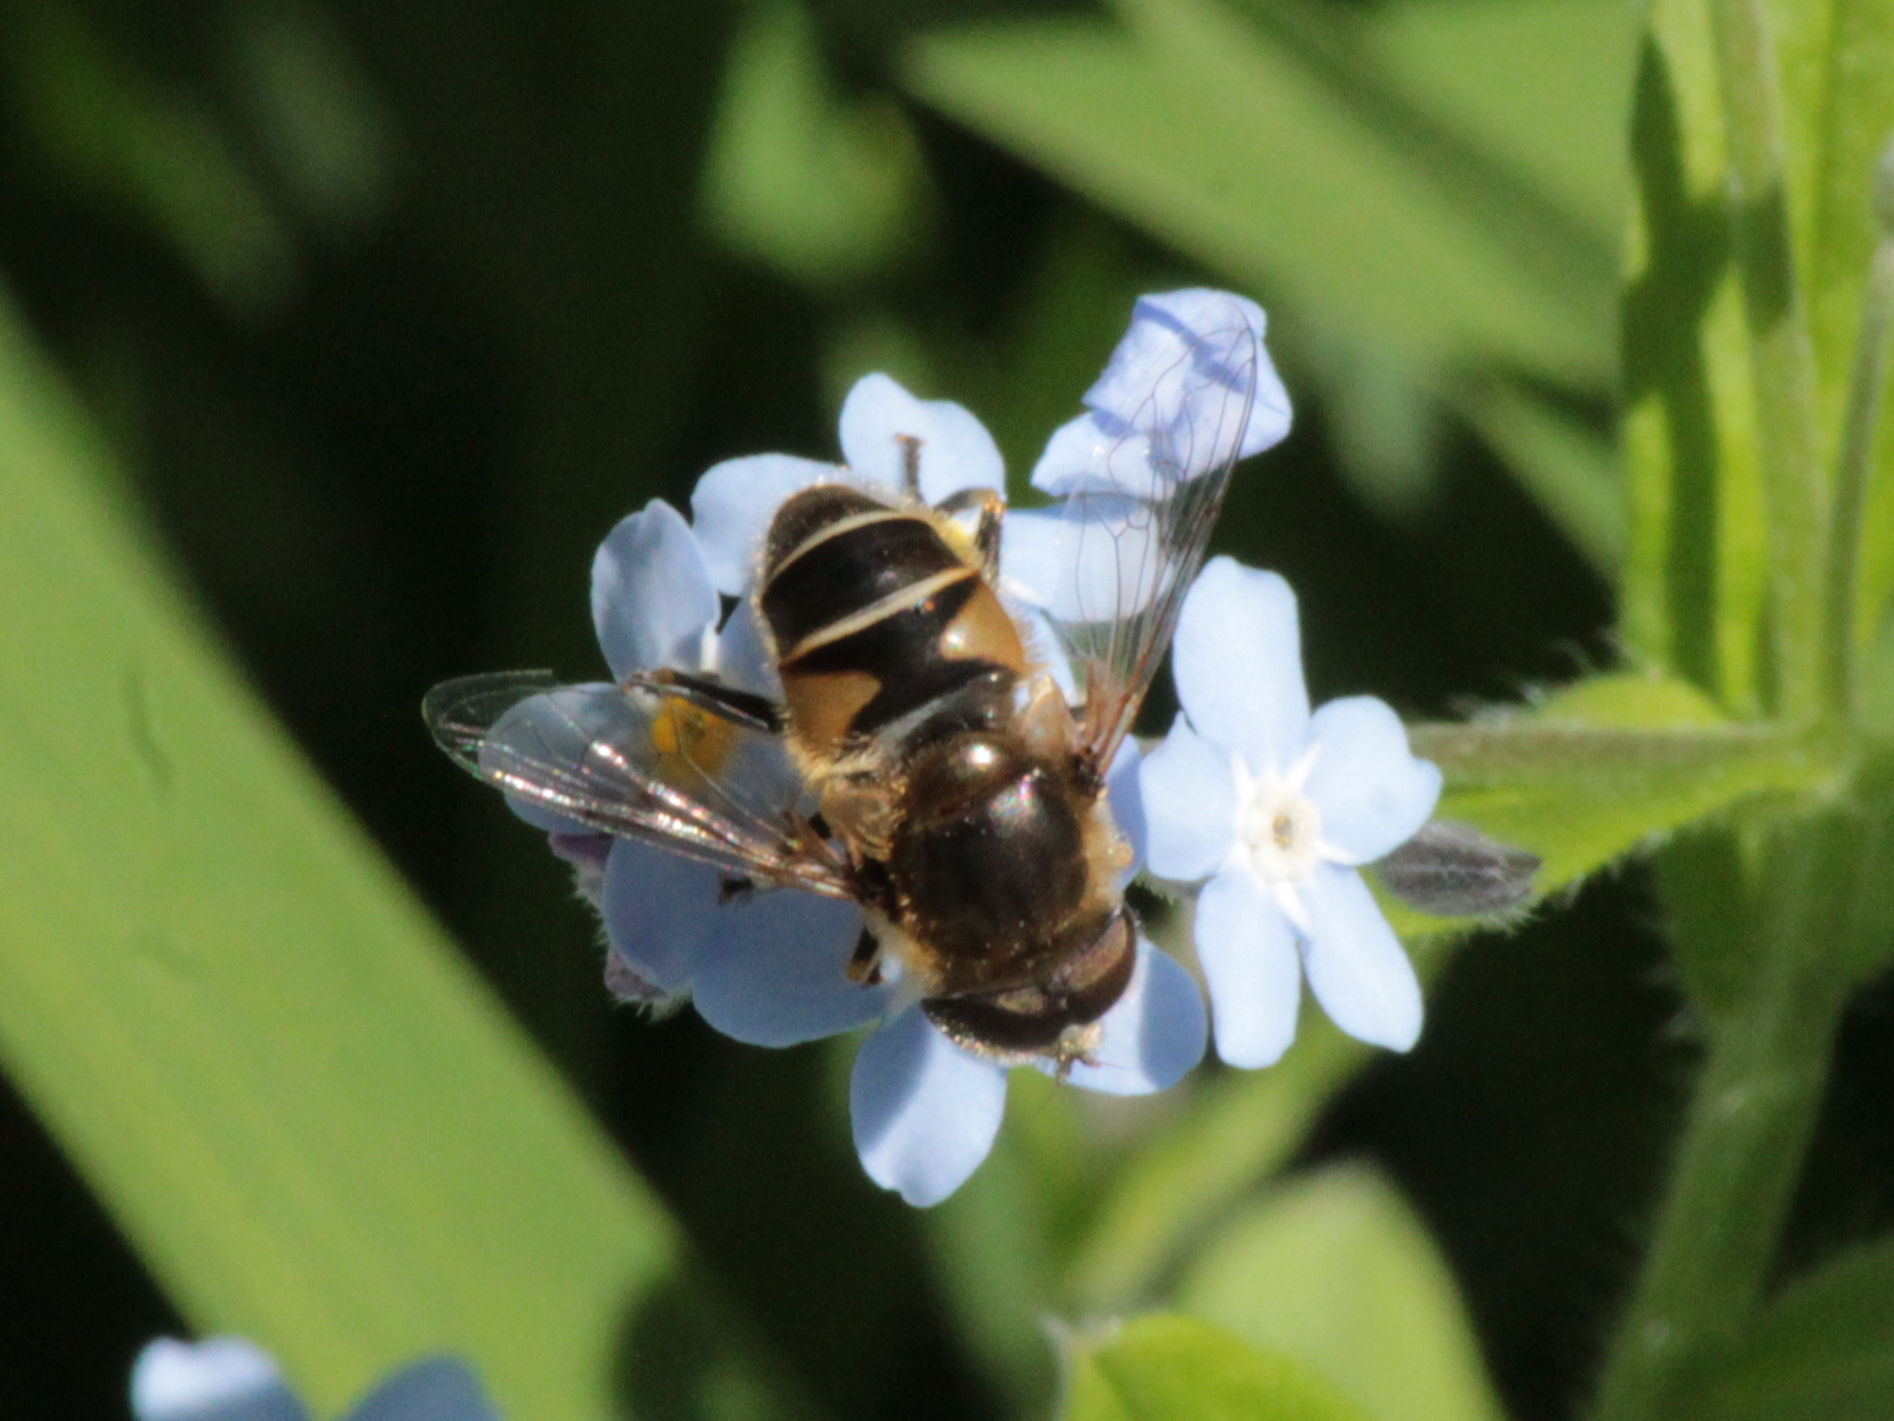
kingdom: Animalia
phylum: Arthropoda
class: Insecta
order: Diptera
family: Syrphidae
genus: Eristalis
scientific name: Eristalis nemorum
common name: Orange-spined drone fly
